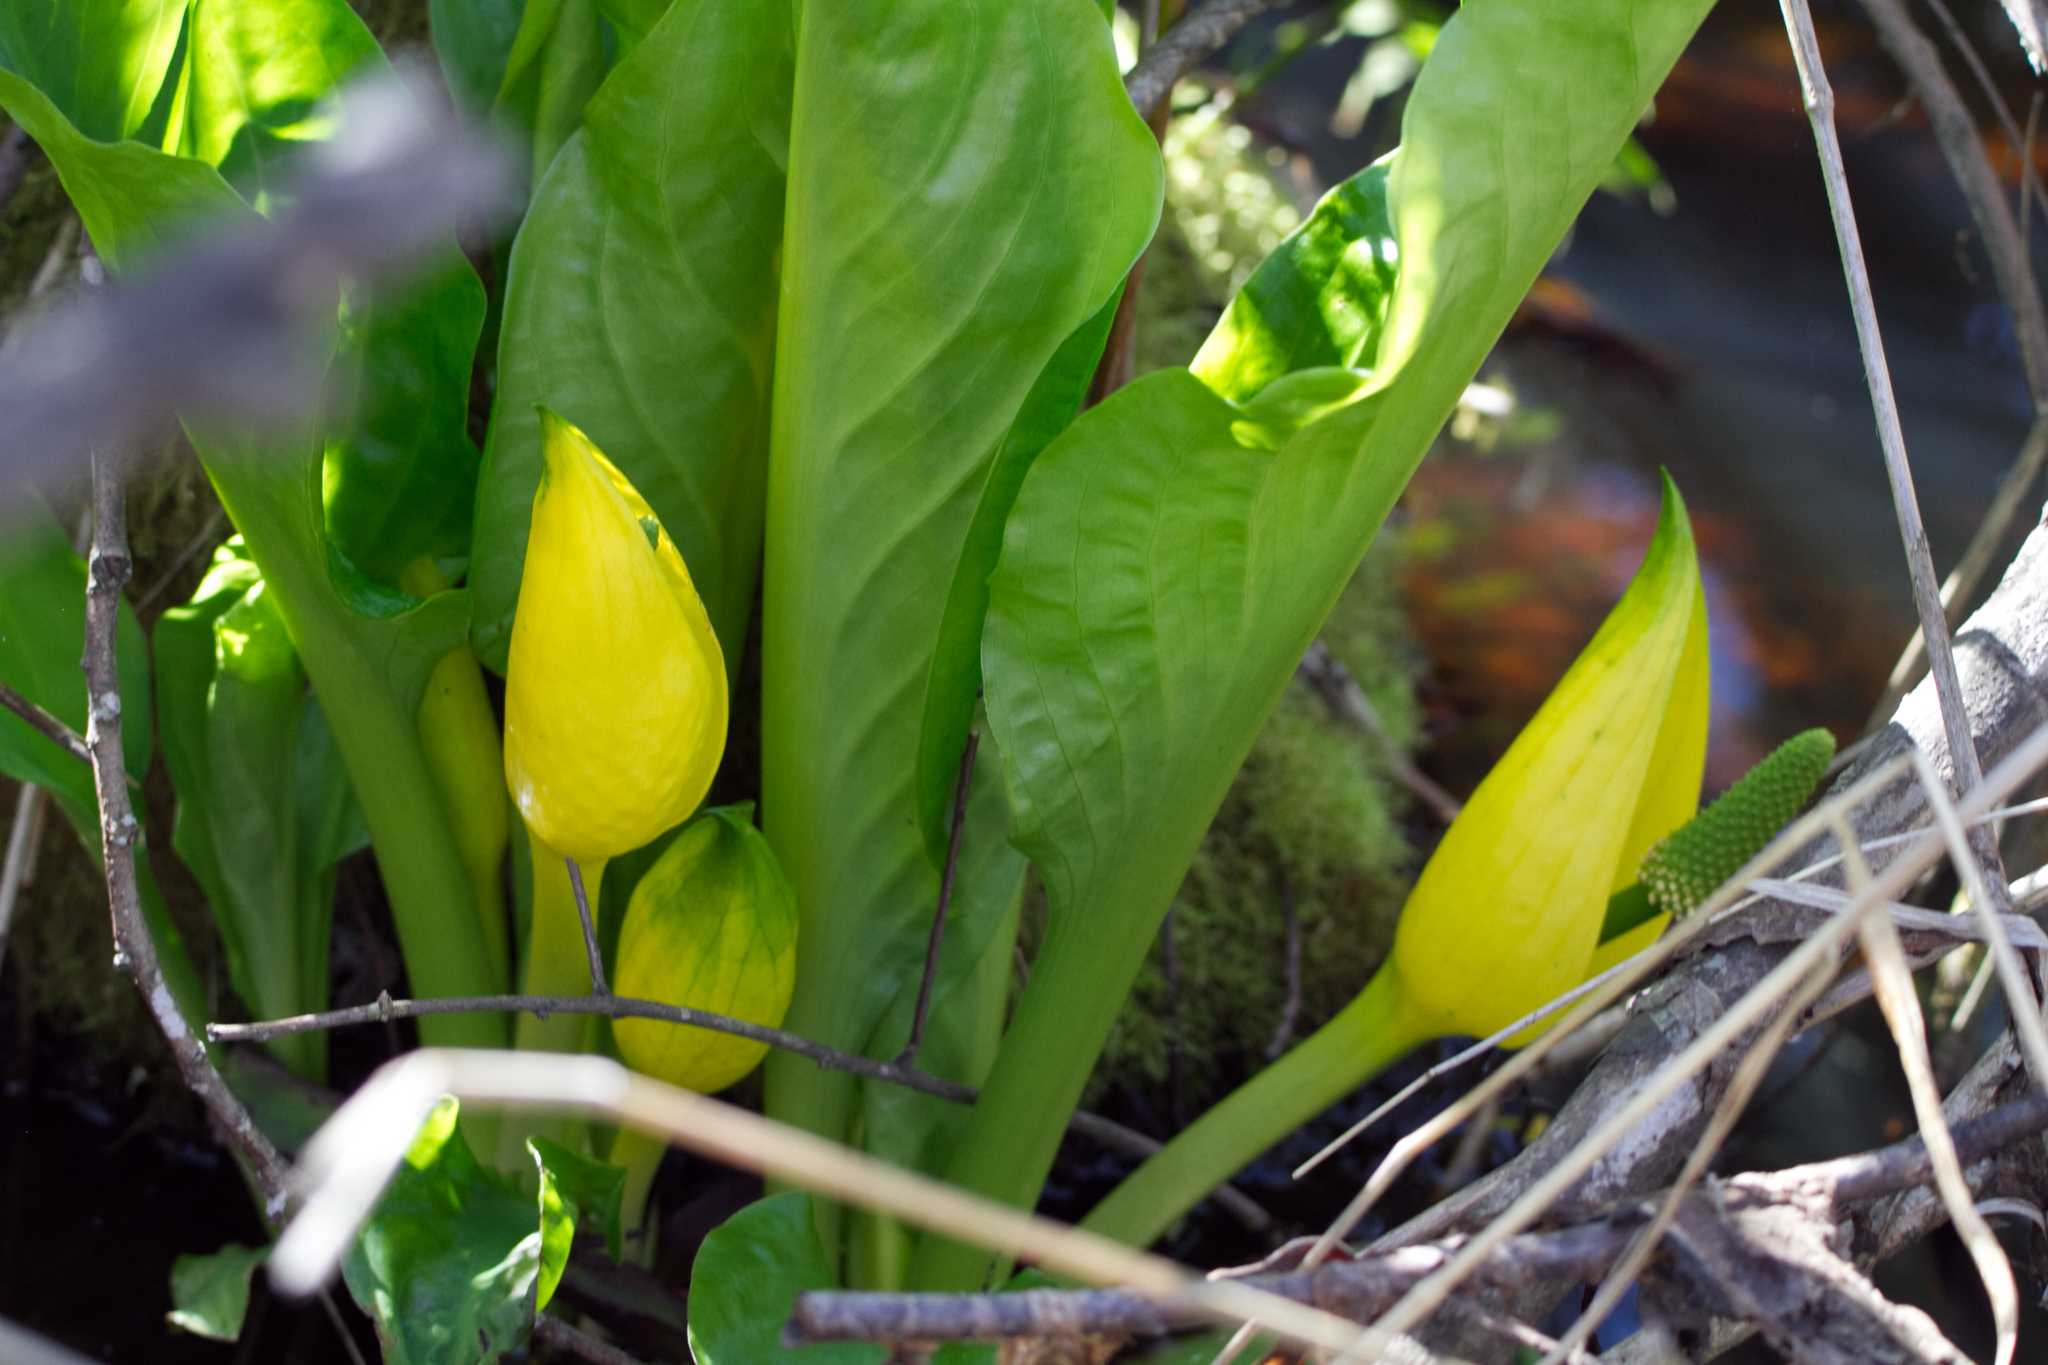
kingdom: Plantae
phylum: Tracheophyta
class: Liliopsida
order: Alismatales
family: Araceae
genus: Lysichiton
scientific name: Lysichiton americanus
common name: American skunk cabbage
